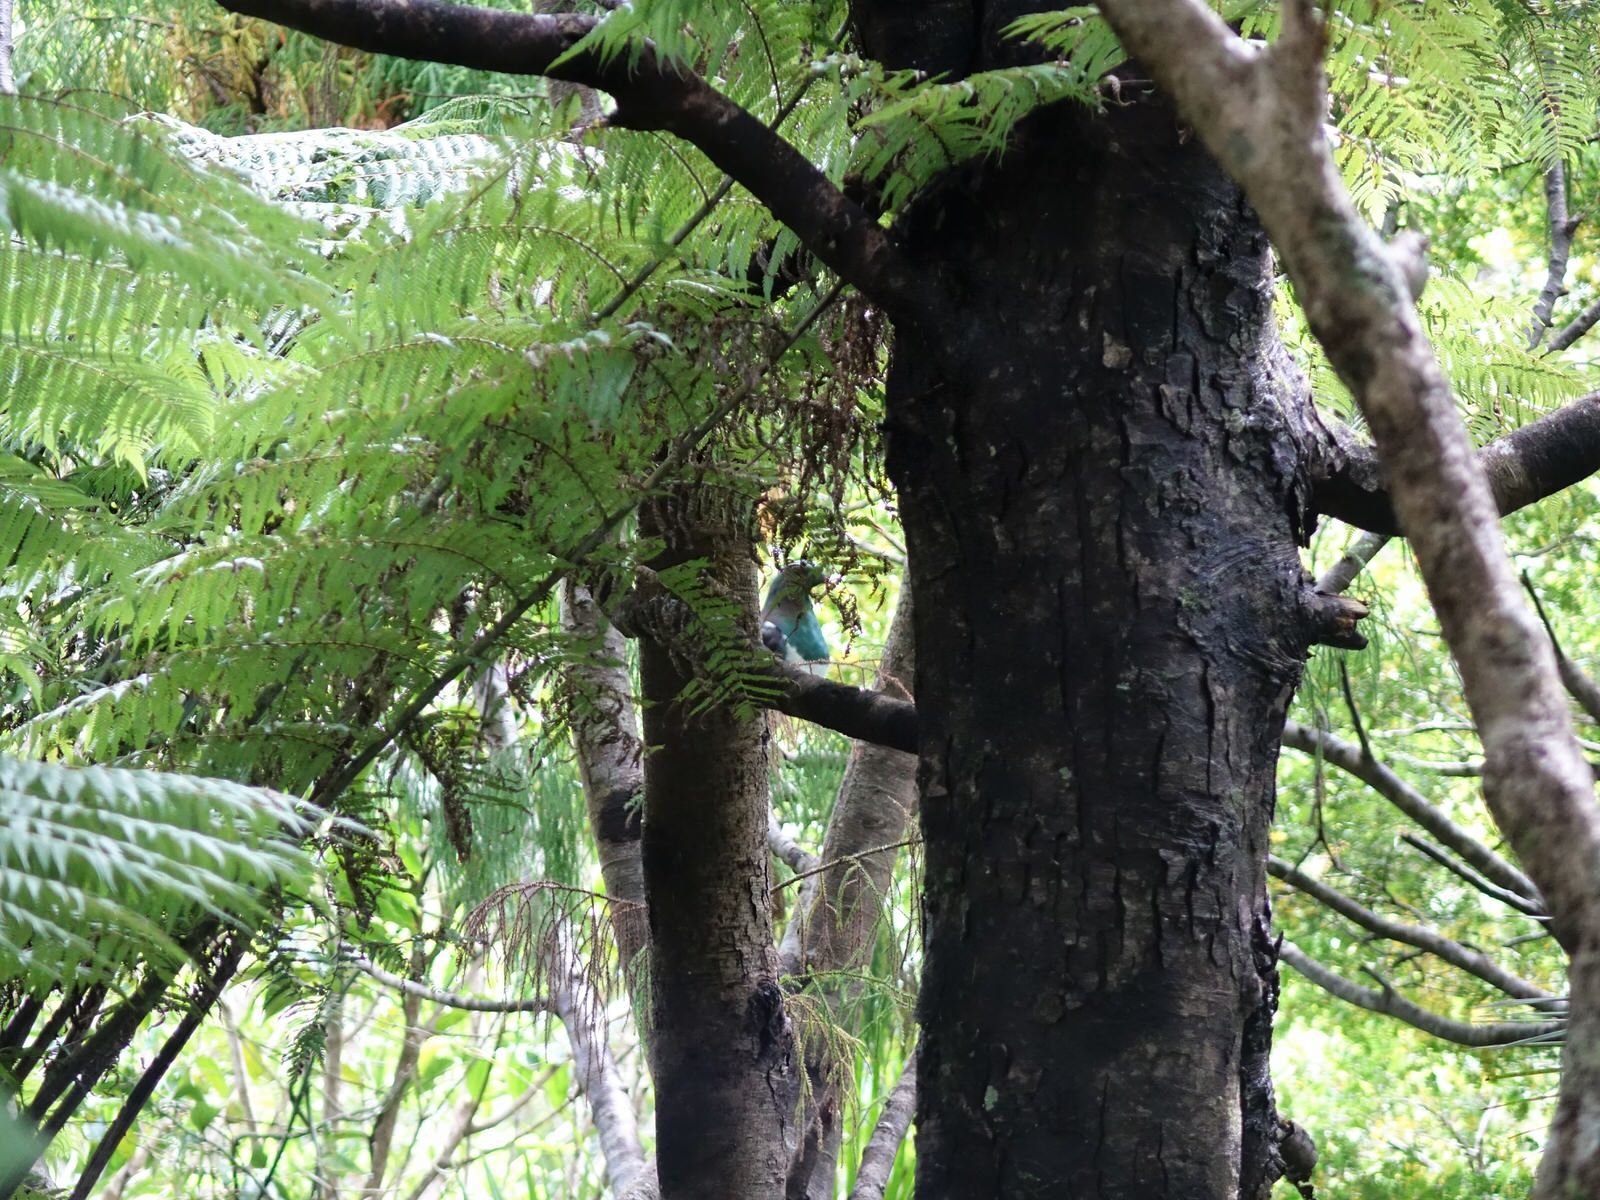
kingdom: Animalia
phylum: Chordata
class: Aves
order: Columbiformes
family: Columbidae
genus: Hemiphaga
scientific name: Hemiphaga novaeseelandiae
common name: New zealand pigeon
